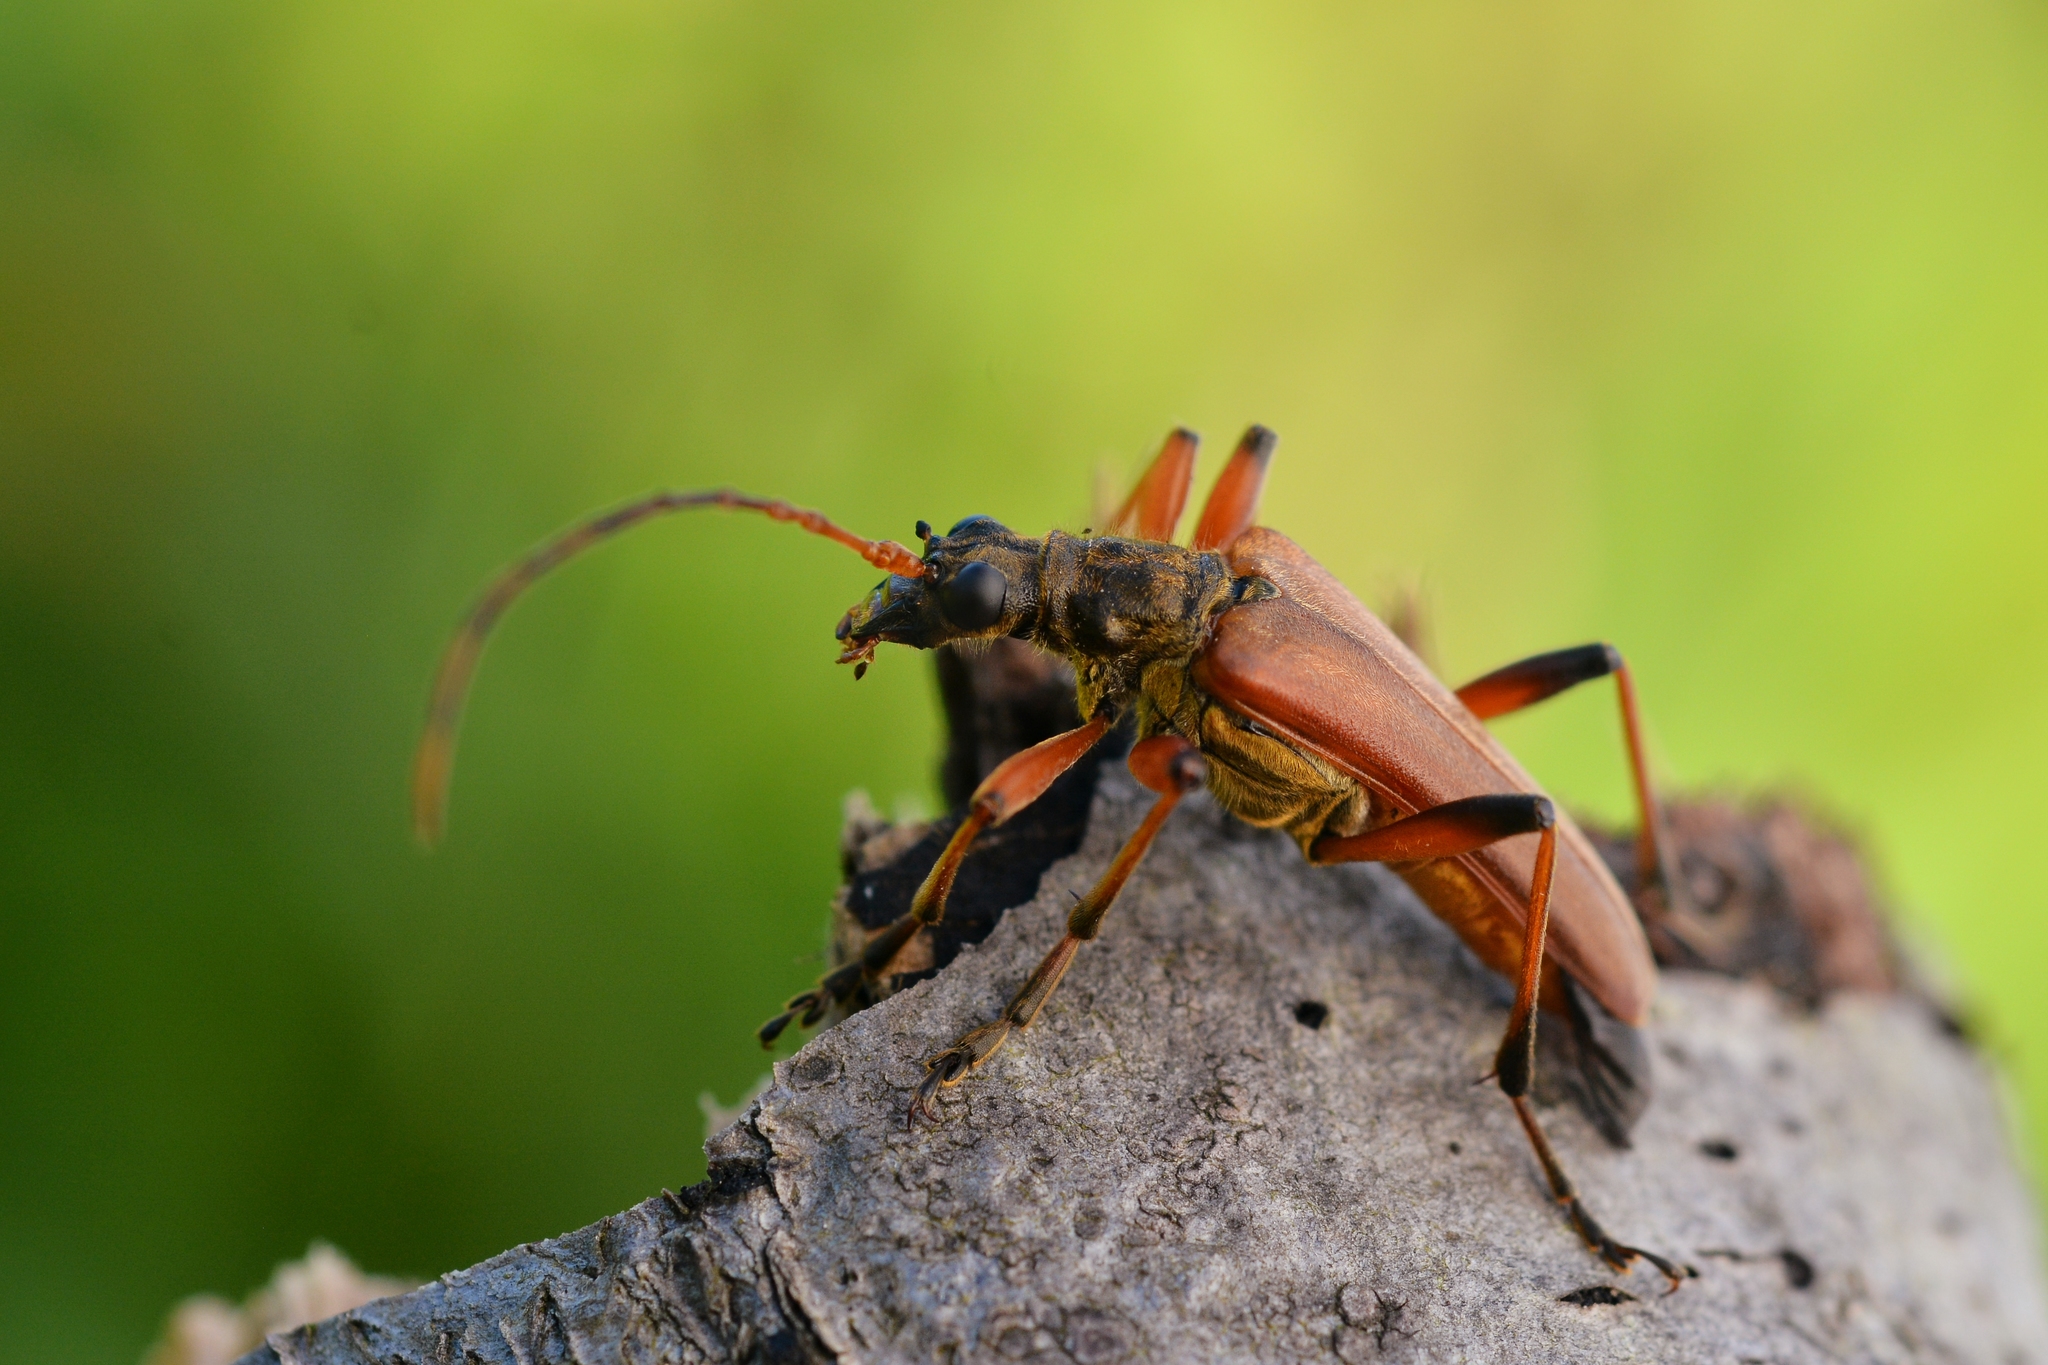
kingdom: Animalia
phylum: Arthropoda
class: Insecta
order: Coleoptera
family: Cerambycidae
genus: Stenocorus
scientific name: Stenocorus meridianus
